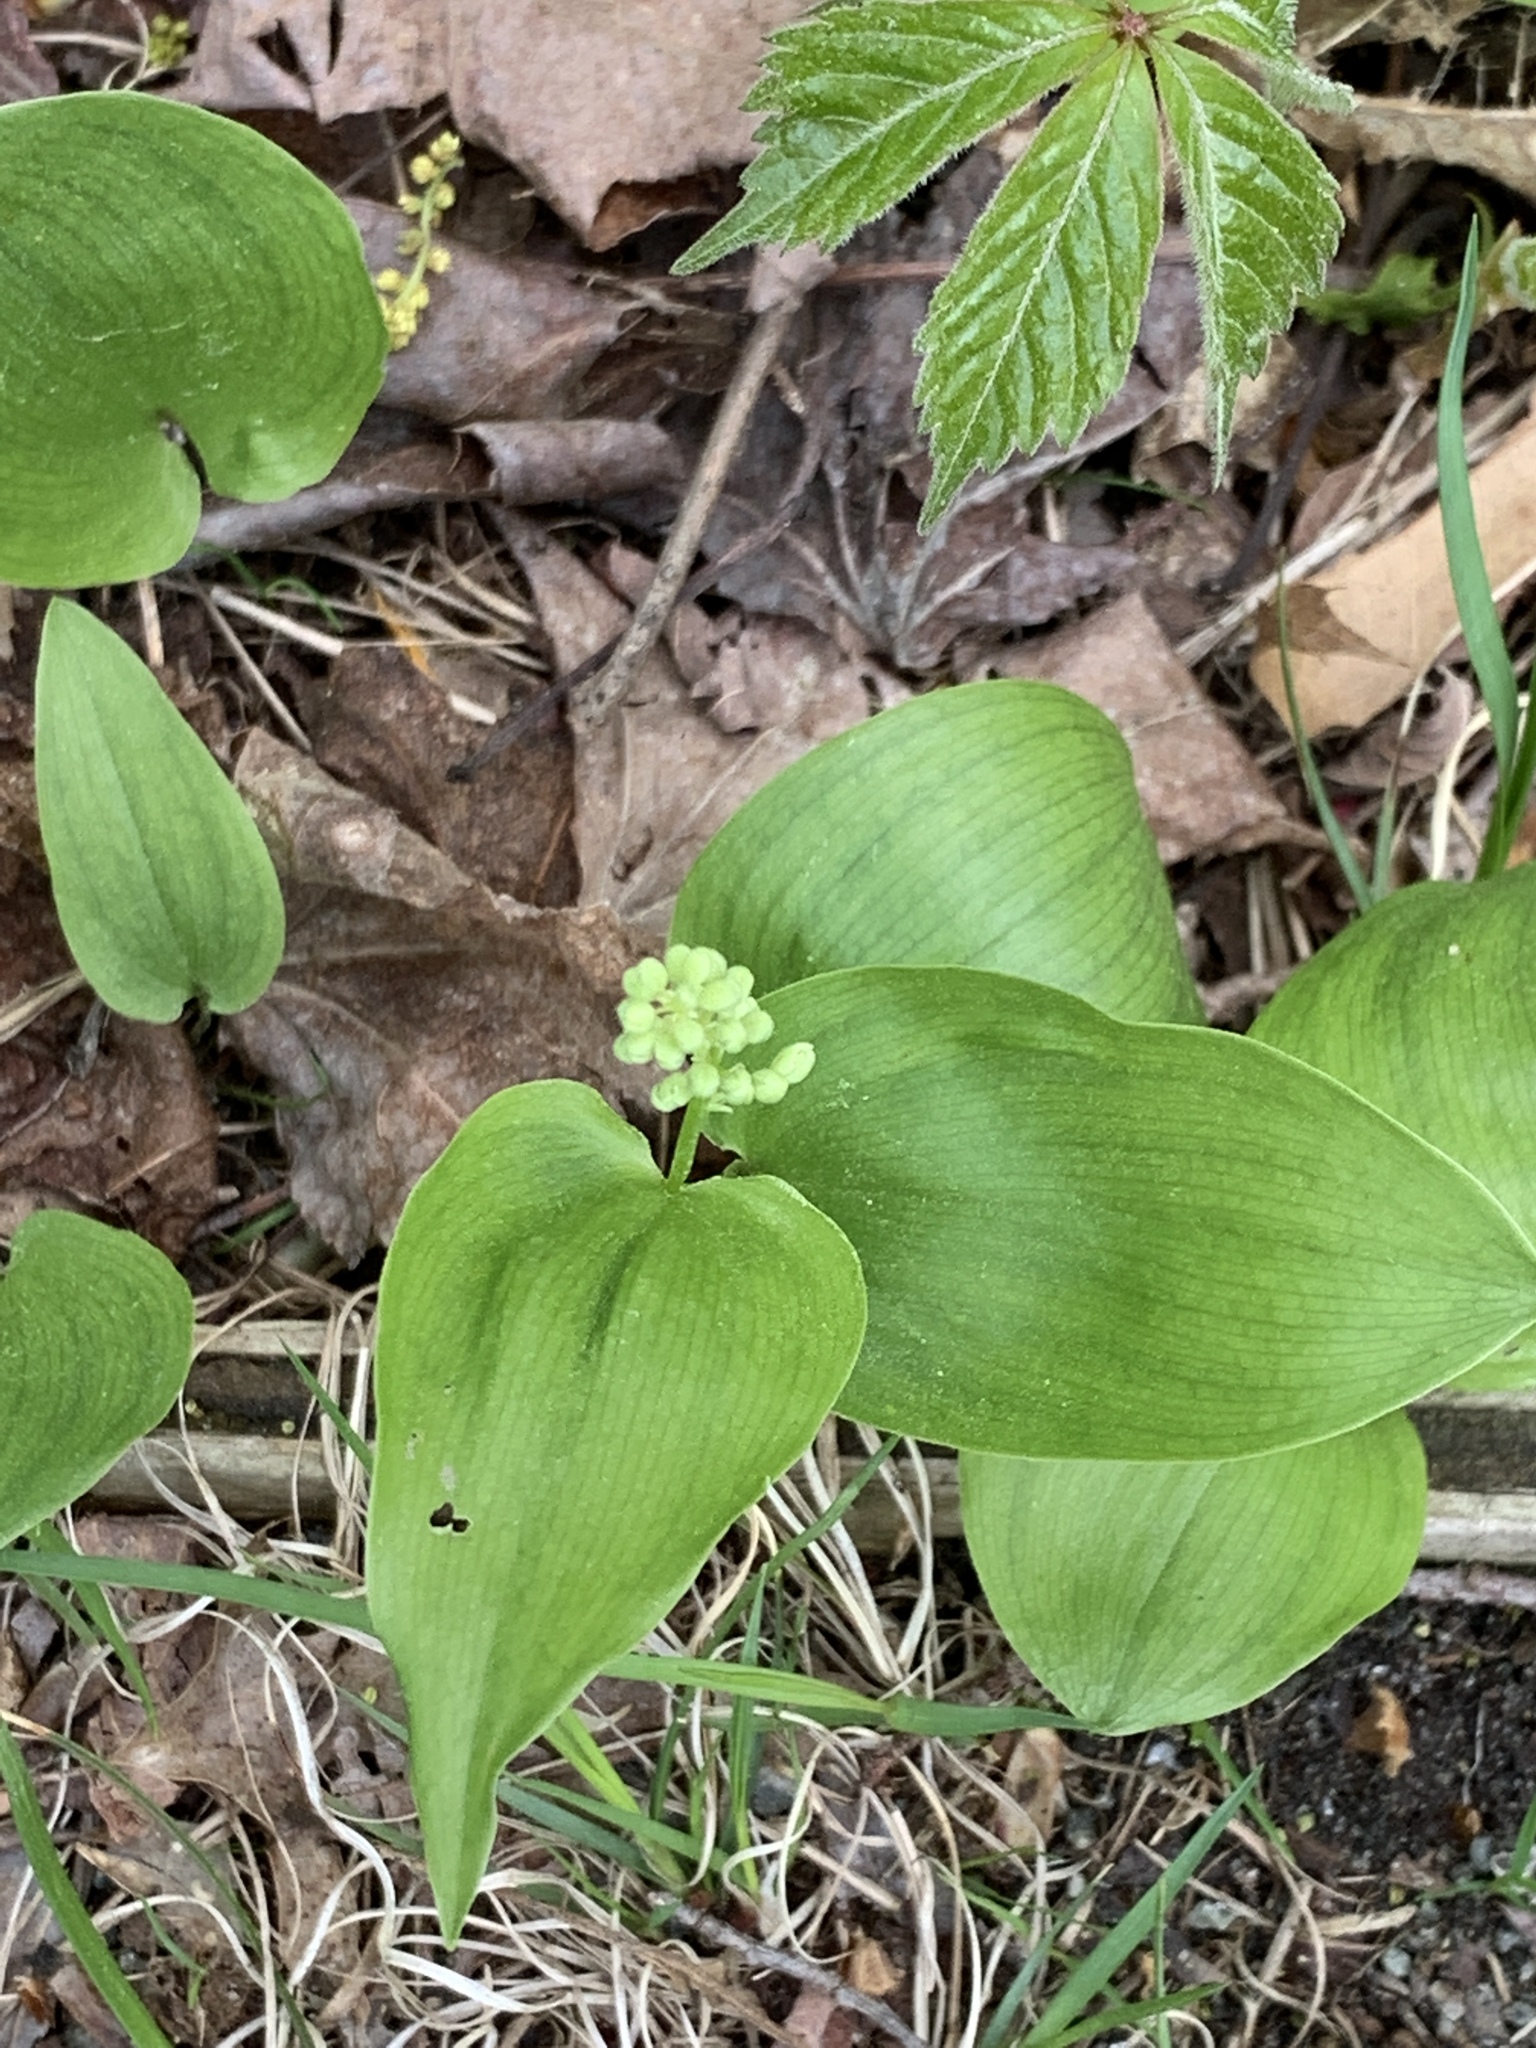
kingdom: Plantae
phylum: Tracheophyta
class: Liliopsida
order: Asparagales
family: Asparagaceae
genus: Maianthemum
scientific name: Maianthemum canadense
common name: False lily-of-the-valley
